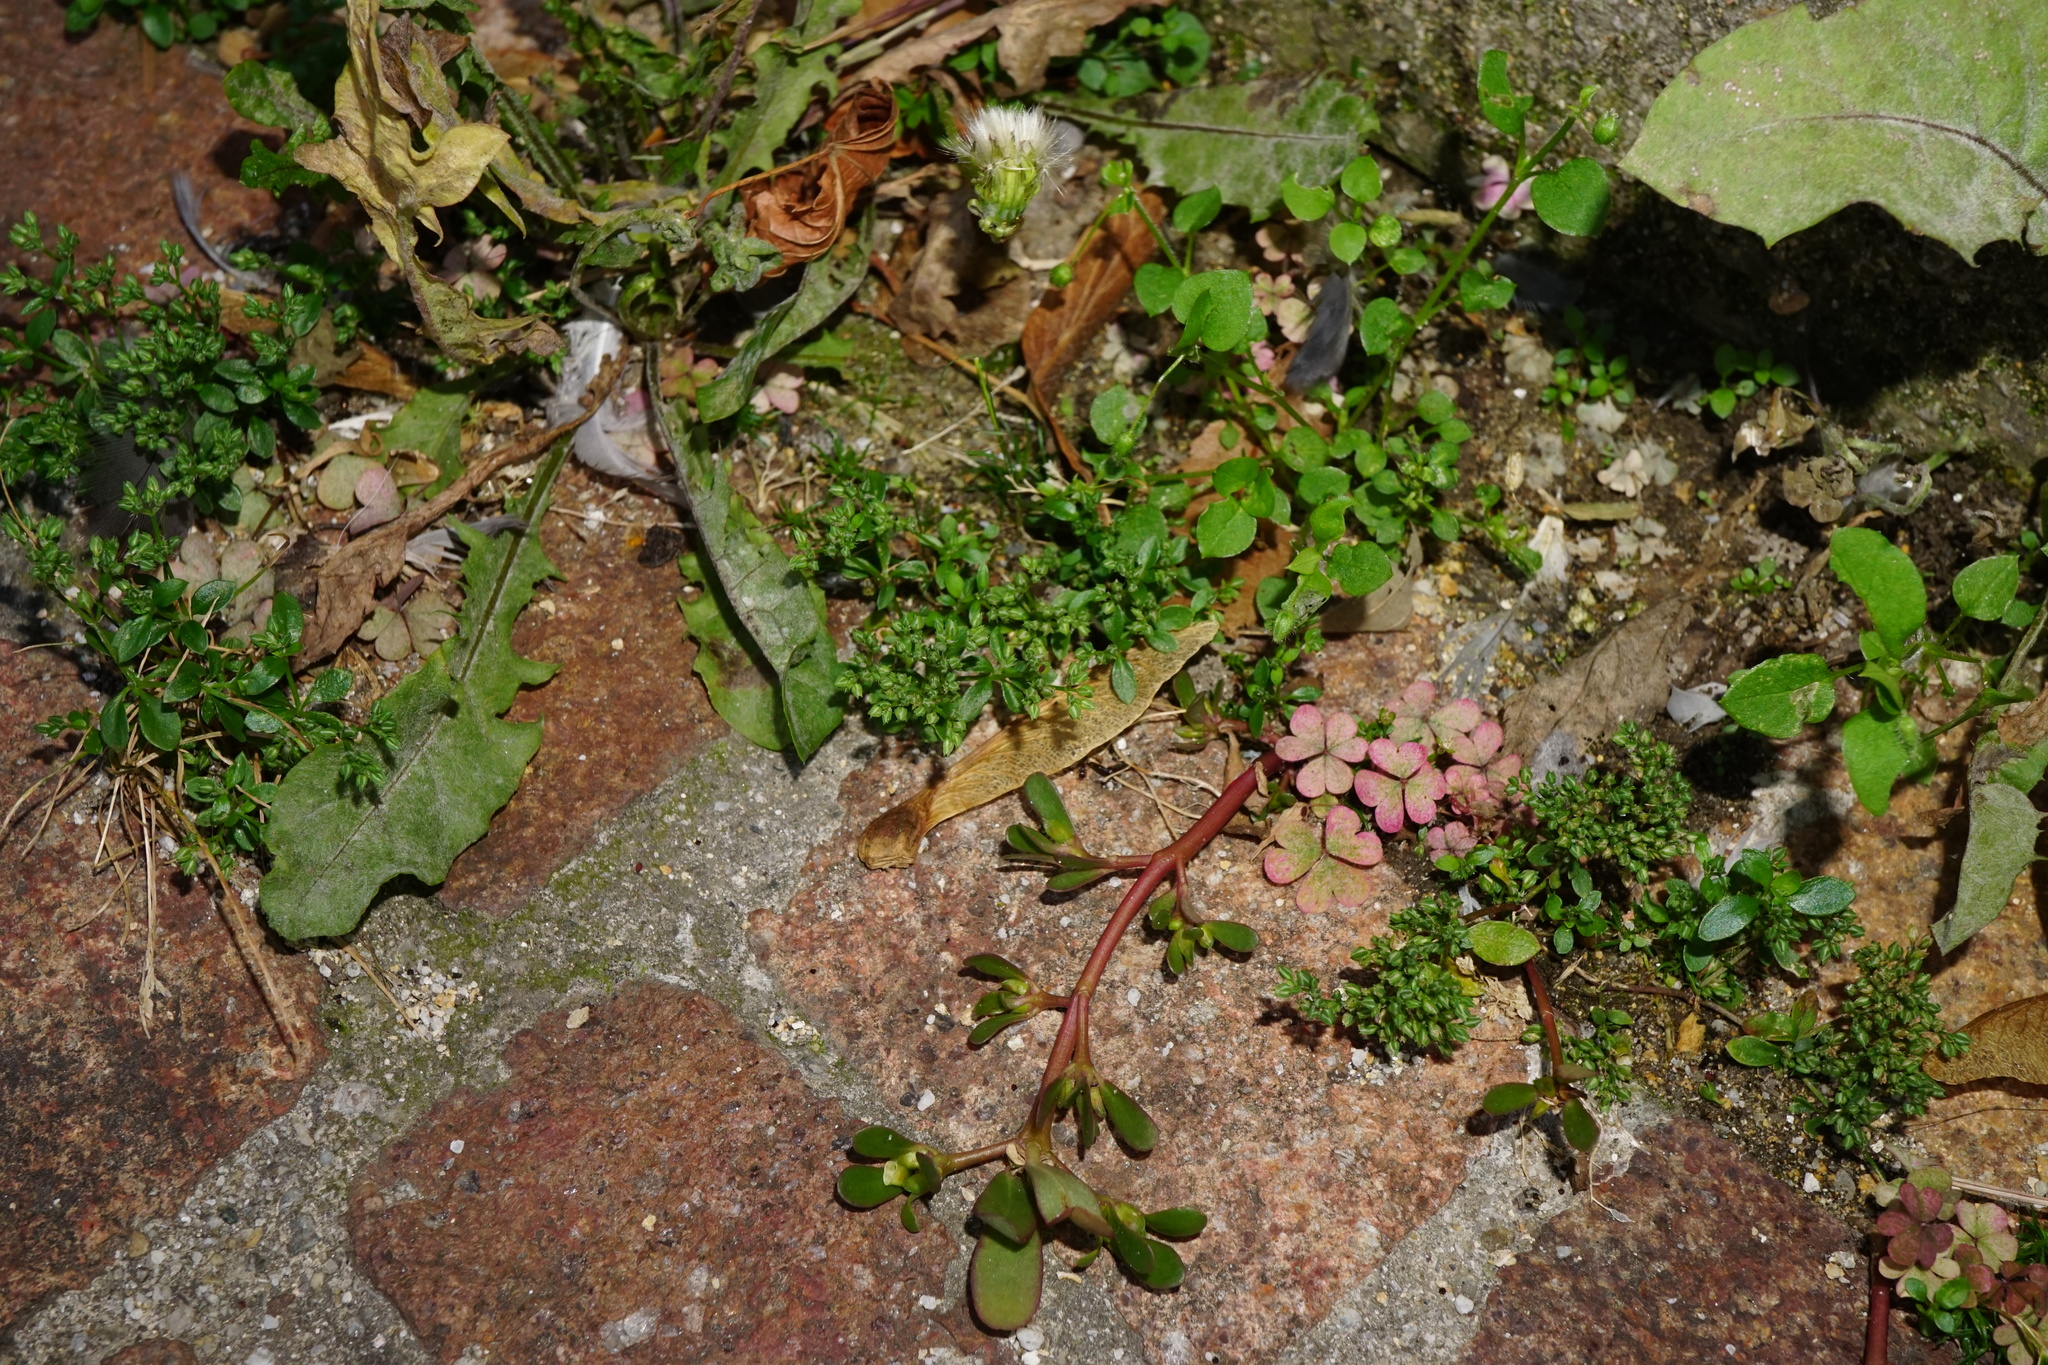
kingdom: Plantae
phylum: Tracheophyta
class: Magnoliopsida
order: Caryophyllales
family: Caryophyllaceae
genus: Polycarpon
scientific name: Polycarpon tetraphyllum
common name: Four-leaved all-seed
